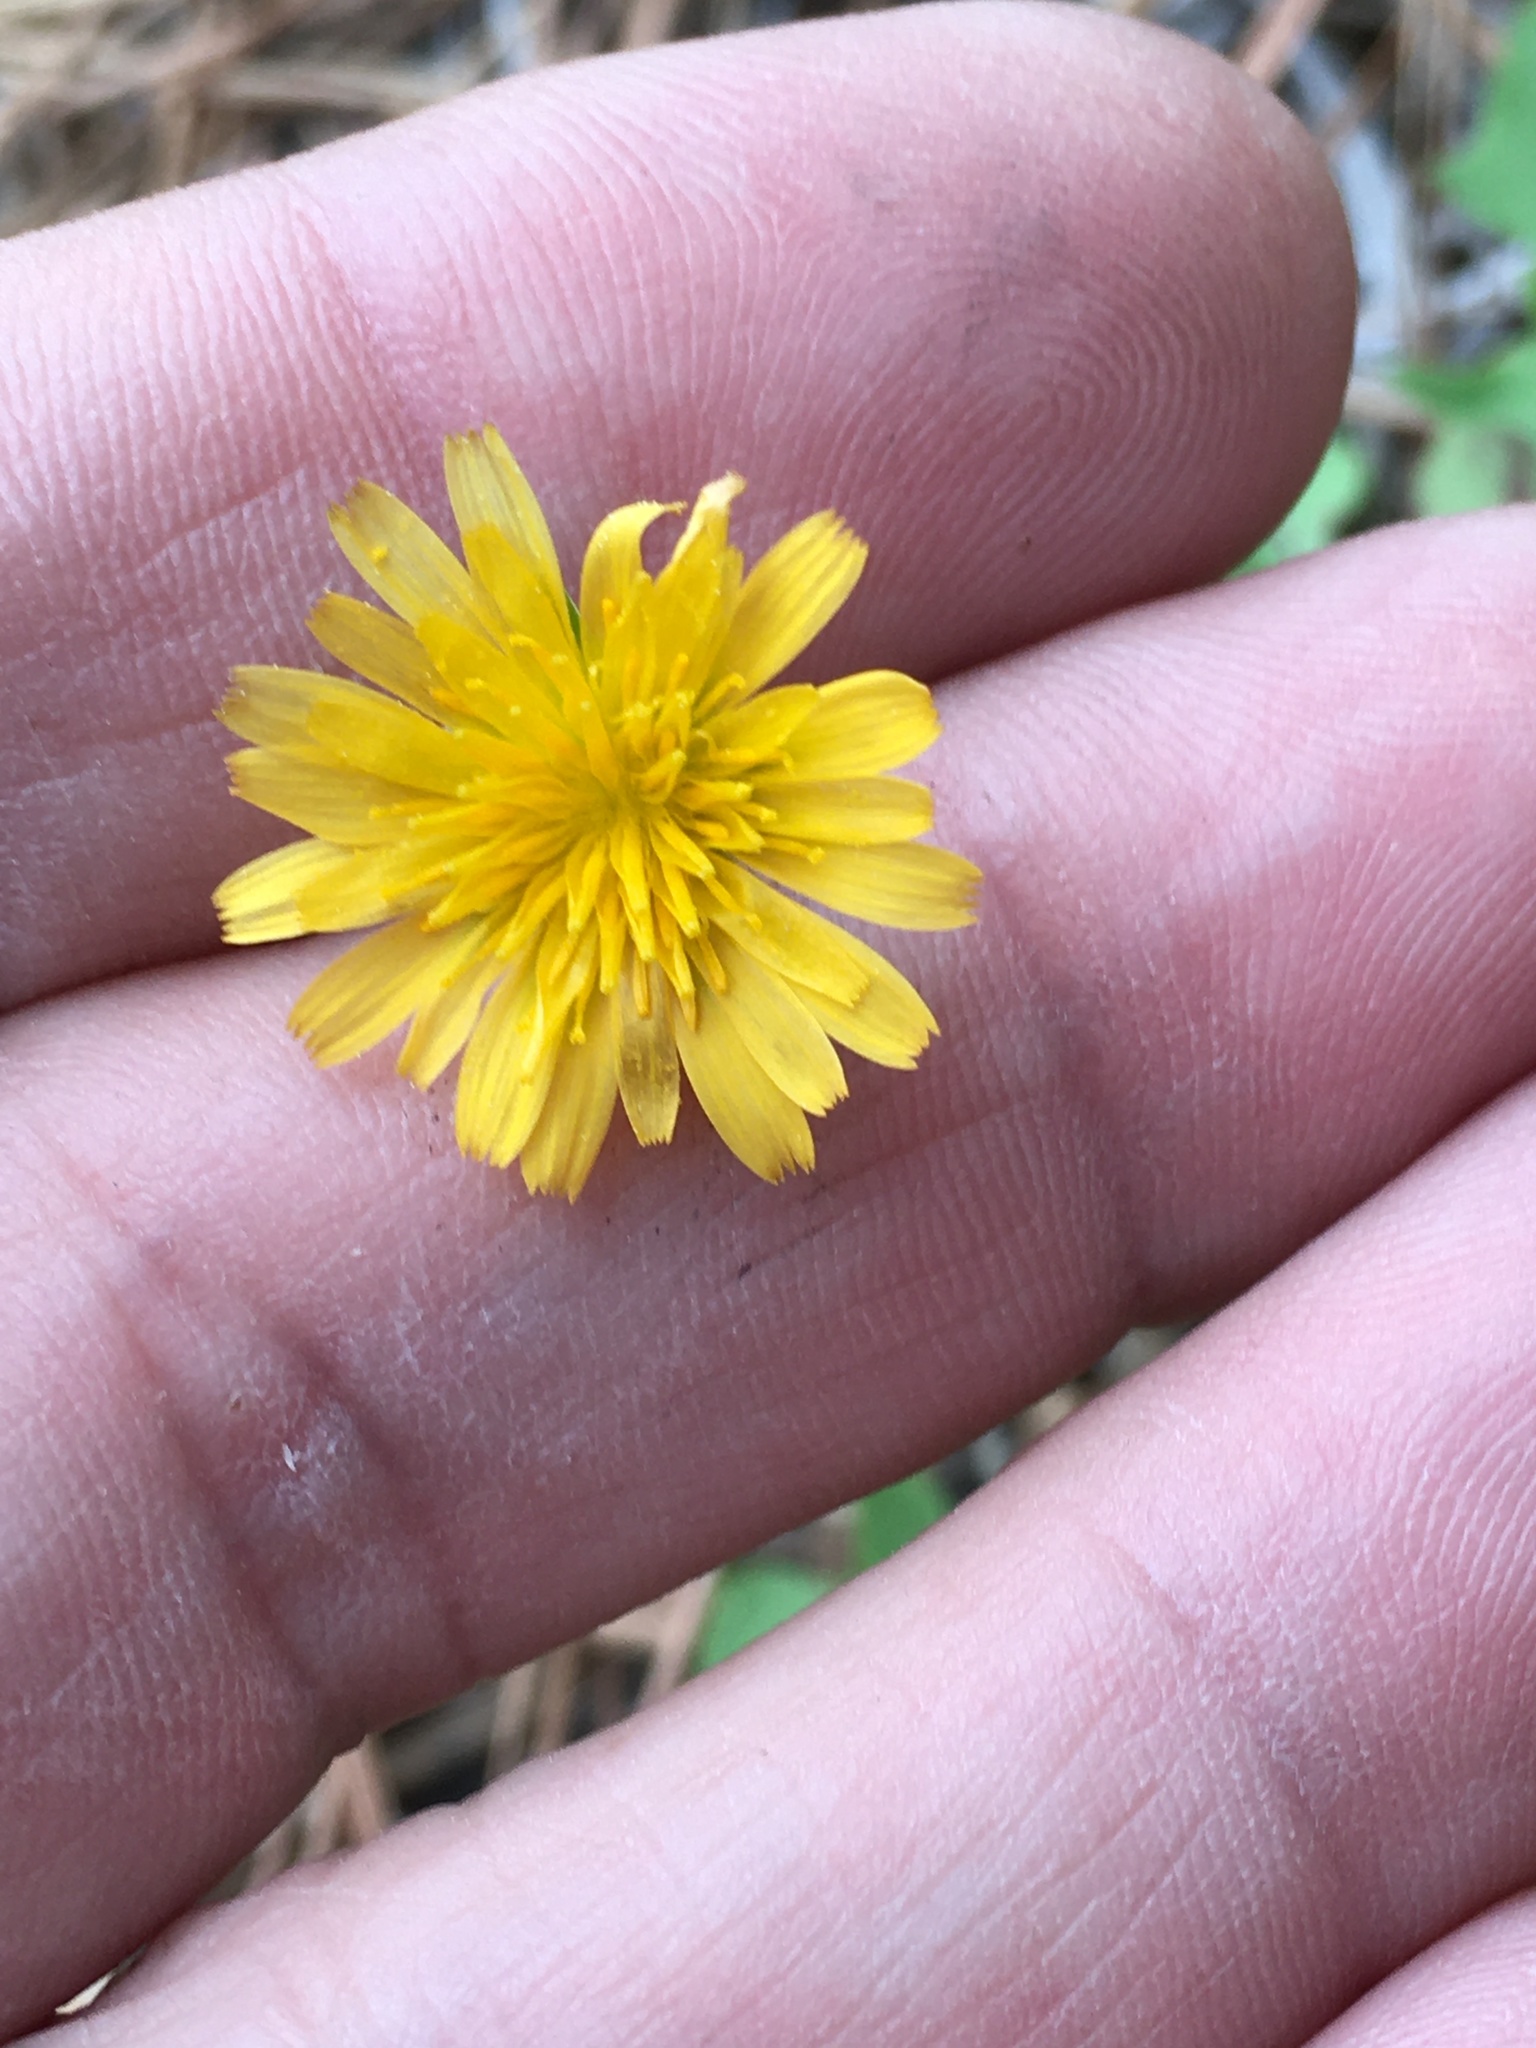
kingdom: Plantae
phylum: Tracheophyta
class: Magnoliopsida
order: Asterales
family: Asteraceae
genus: Krigia
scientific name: Krigia virginica
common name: Virginia dwarf-dandelion
